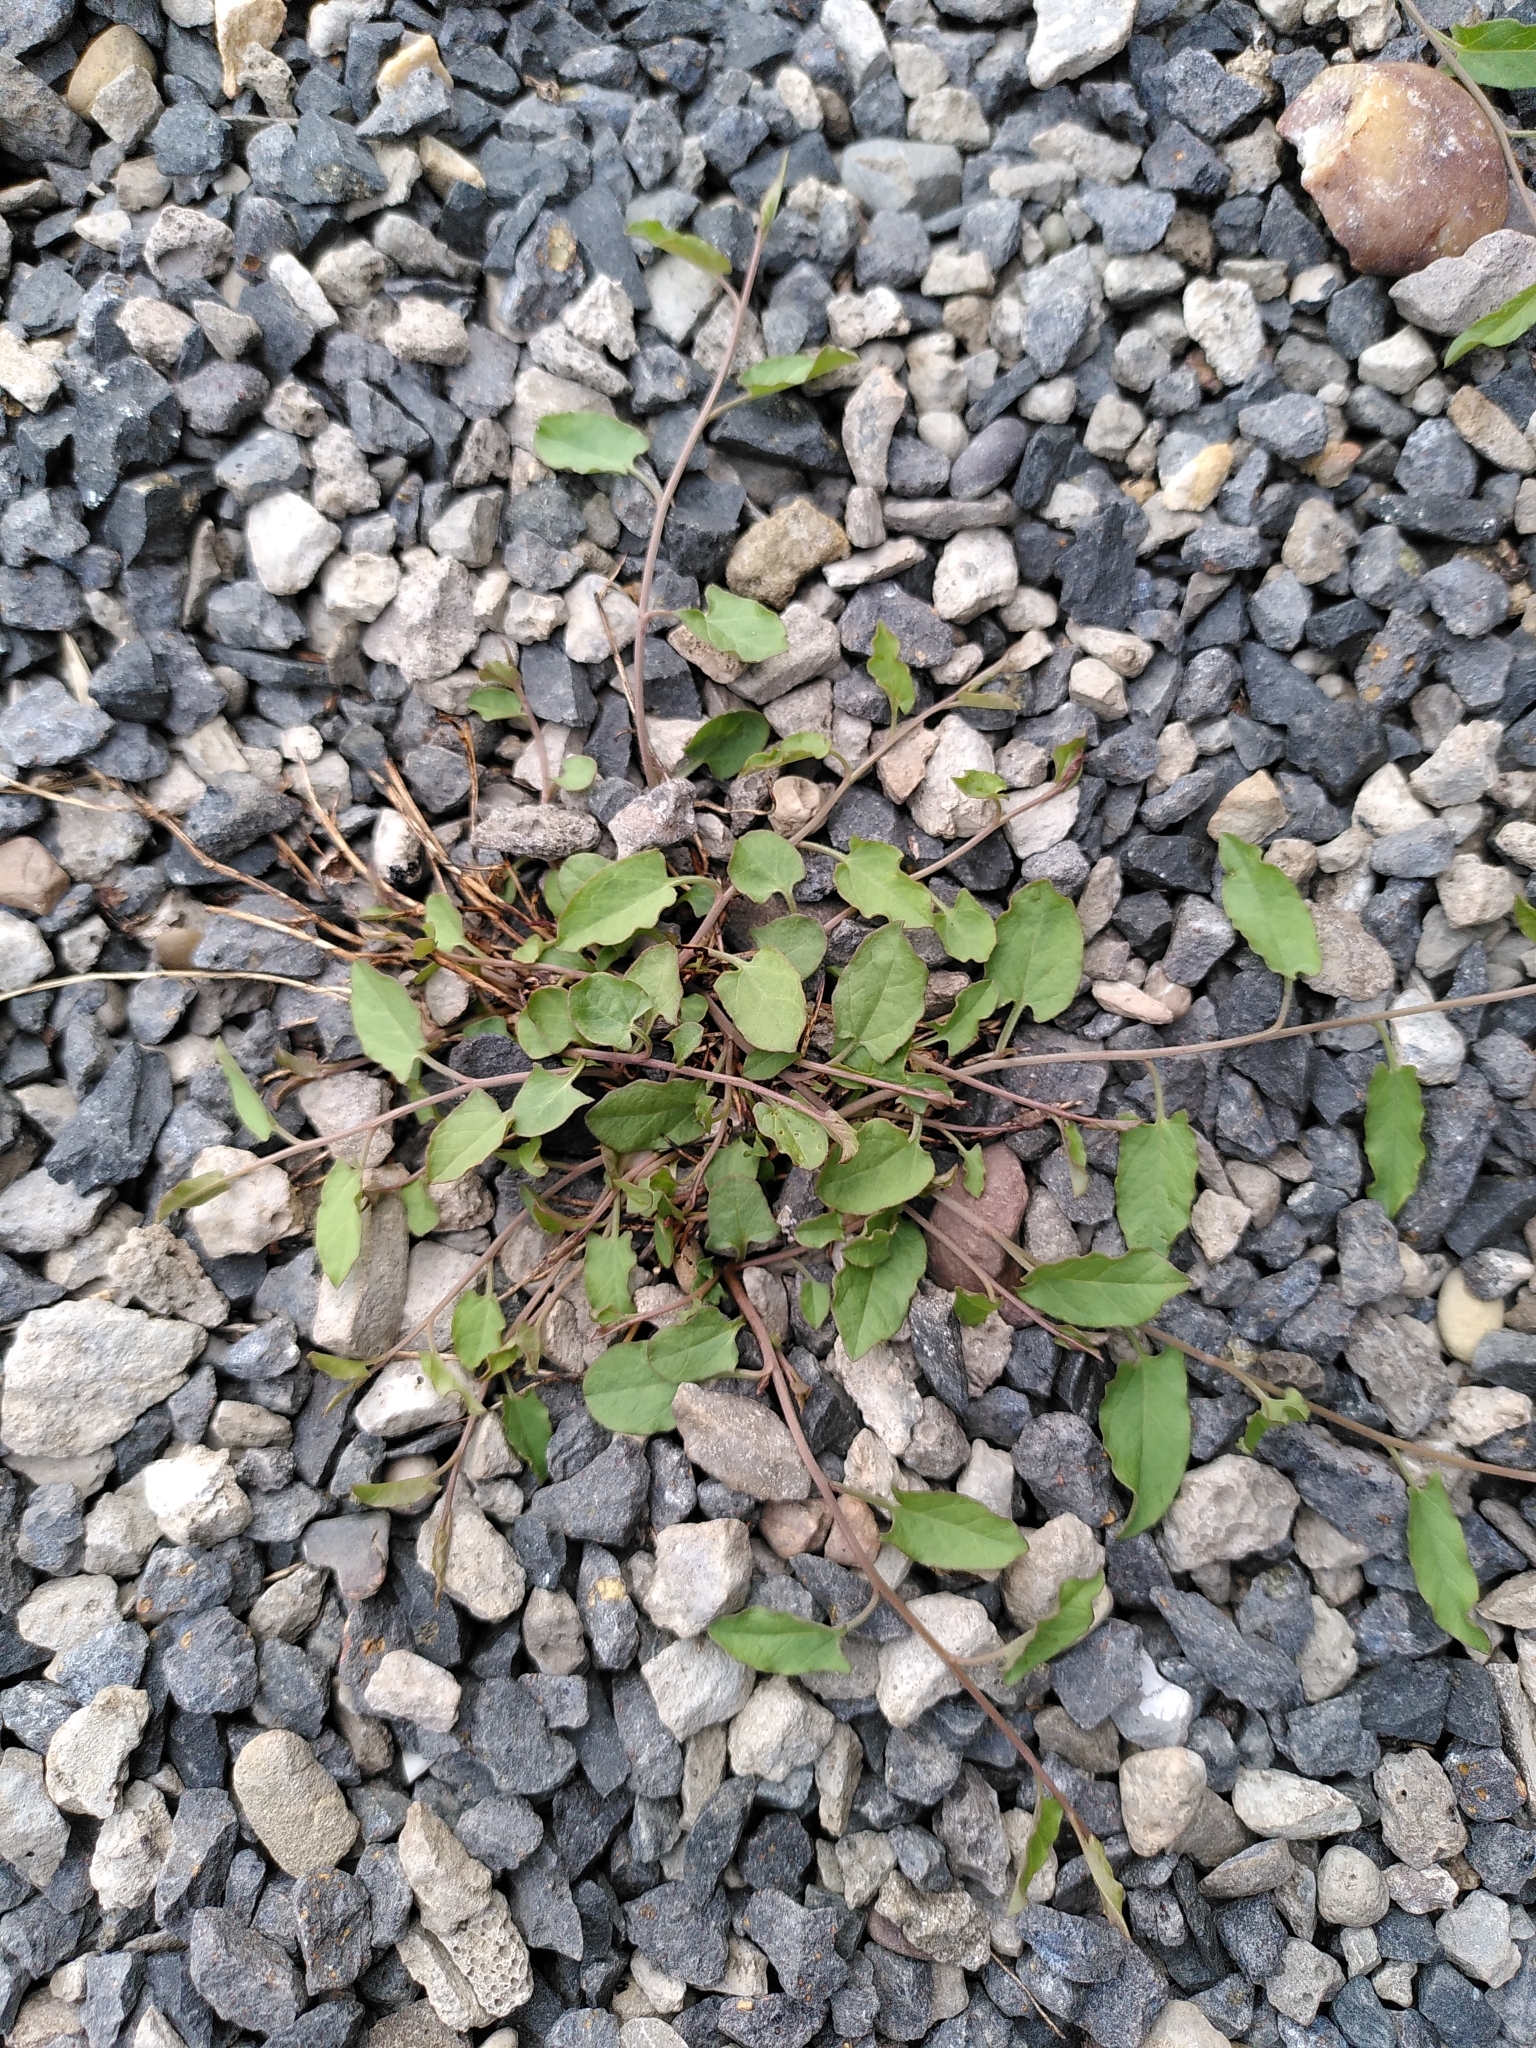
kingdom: Plantae
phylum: Tracheophyta
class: Magnoliopsida
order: Solanales
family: Convolvulaceae
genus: Convolvulus
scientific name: Convolvulus arvensis
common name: Field bindweed
